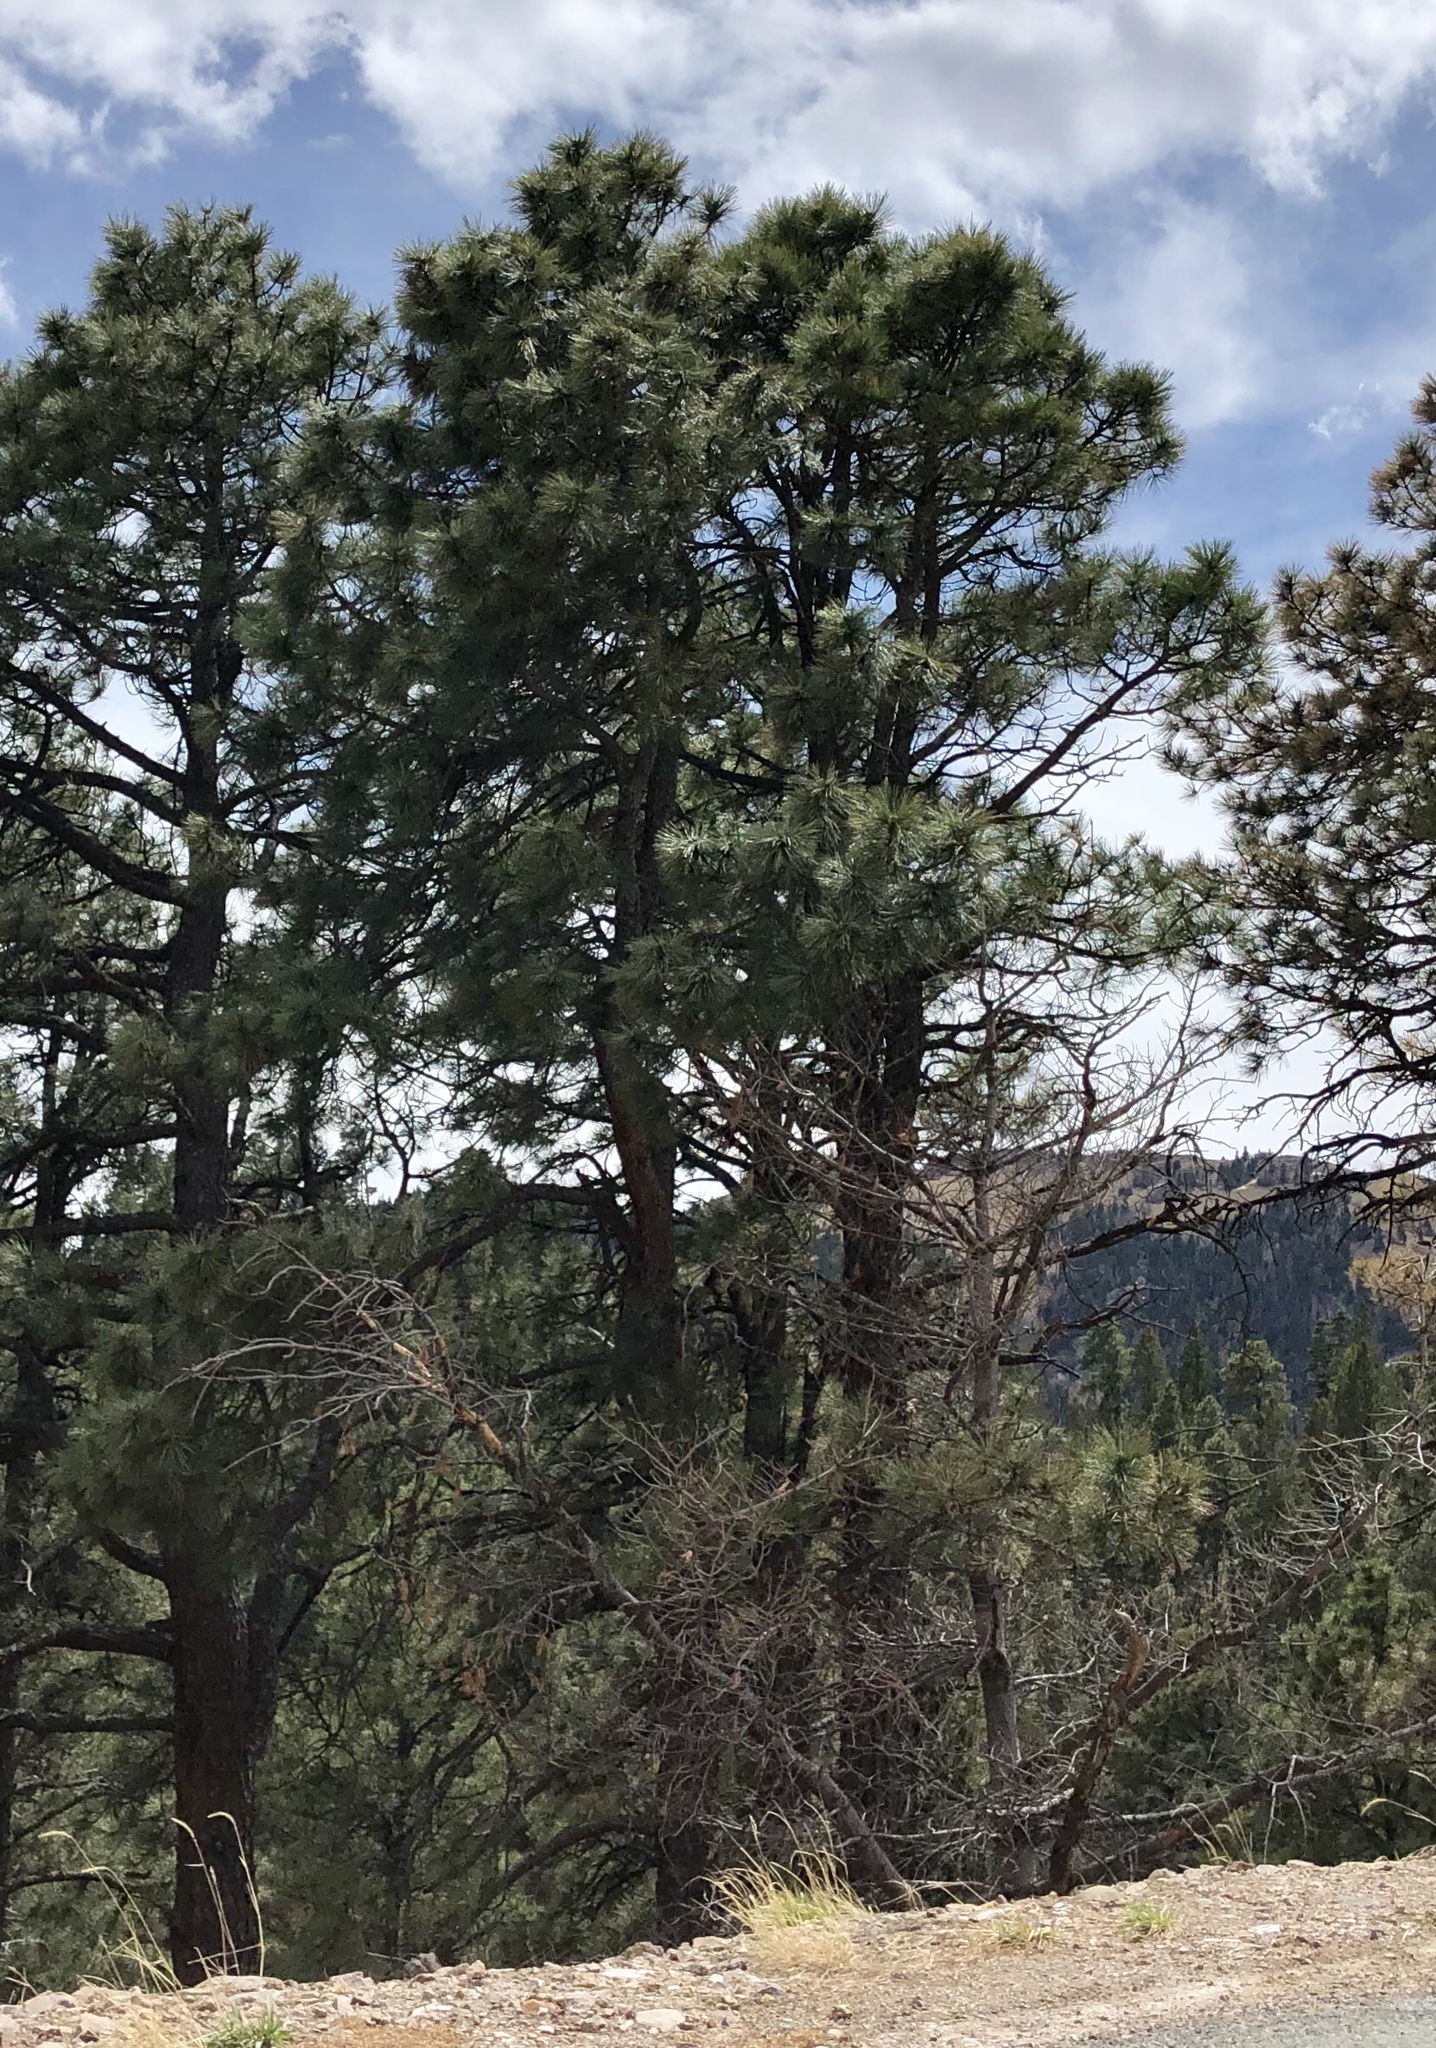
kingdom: Plantae
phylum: Tracheophyta
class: Pinopsida
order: Pinales
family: Pinaceae
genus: Pinus
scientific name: Pinus ponderosa
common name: Western yellow-pine
